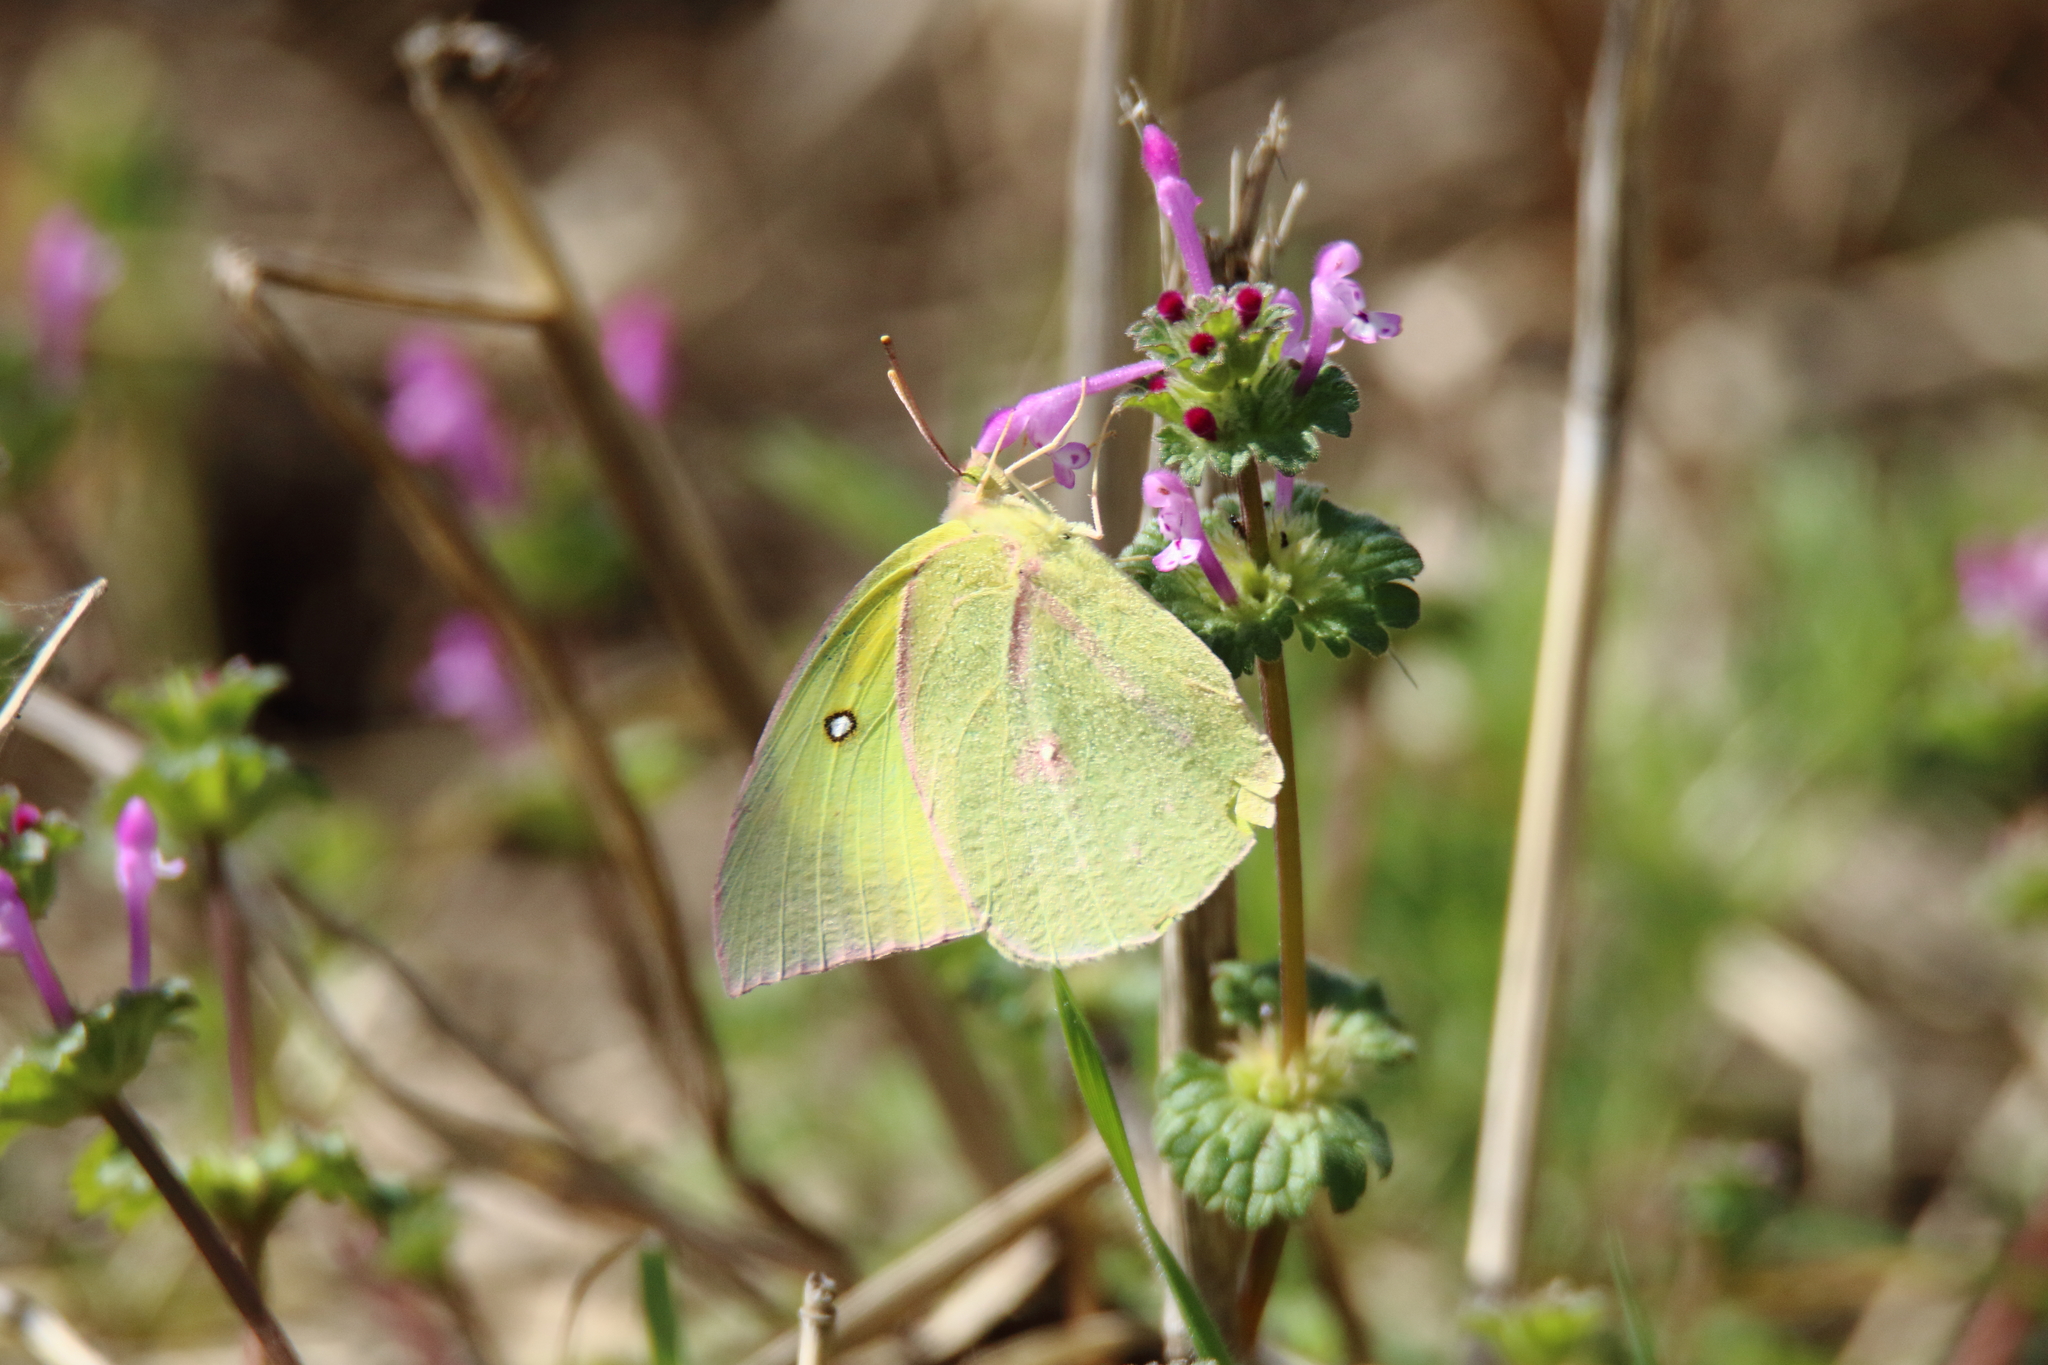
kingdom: Animalia
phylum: Arthropoda
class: Insecta
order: Lepidoptera
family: Pieridae
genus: Zerene
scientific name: Zerene cesonia
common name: Southern dogface
